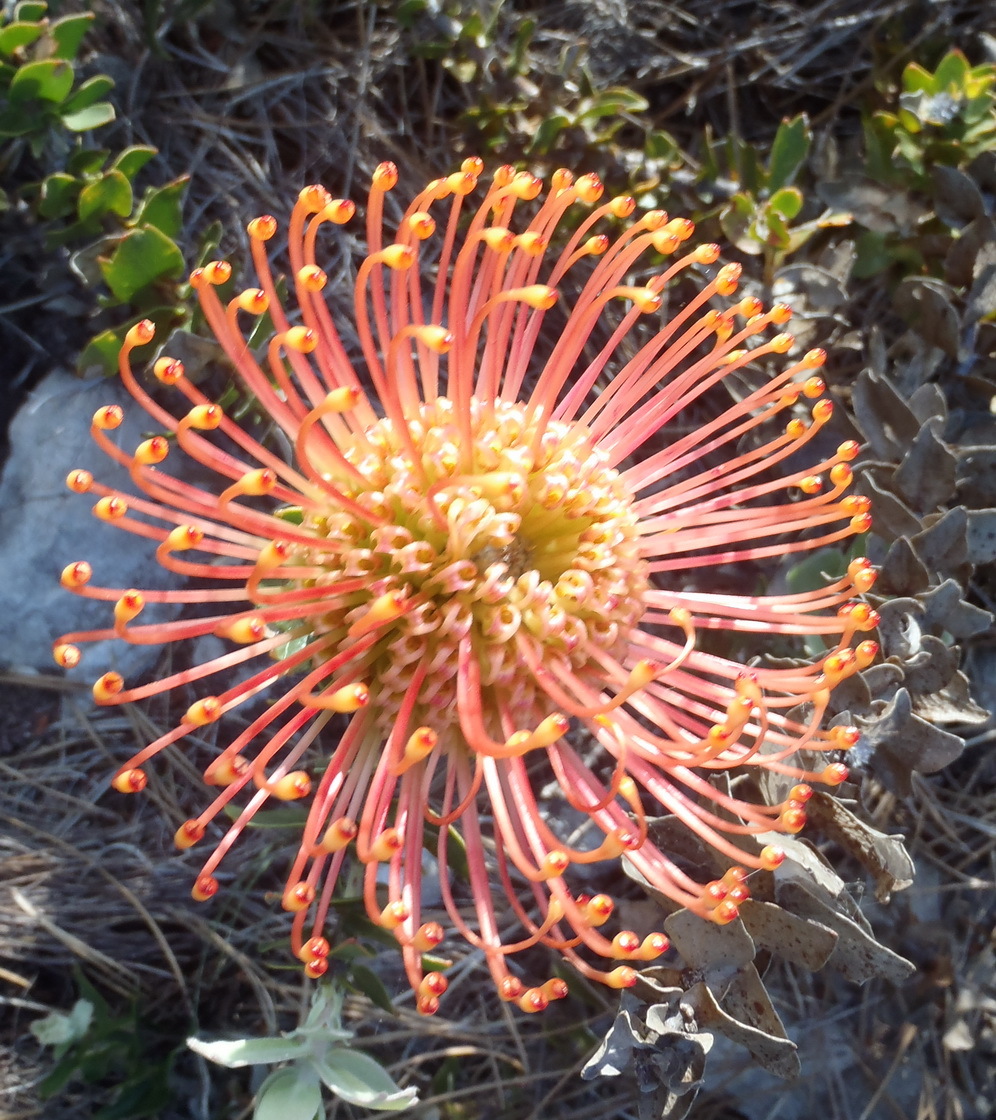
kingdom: Plantae
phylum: Tracheophyta
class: Magnoliopsida
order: Proteales
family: Proteaceae
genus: Leucospermum
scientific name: Leucospermum cordifolium
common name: Red pincushion-protea
